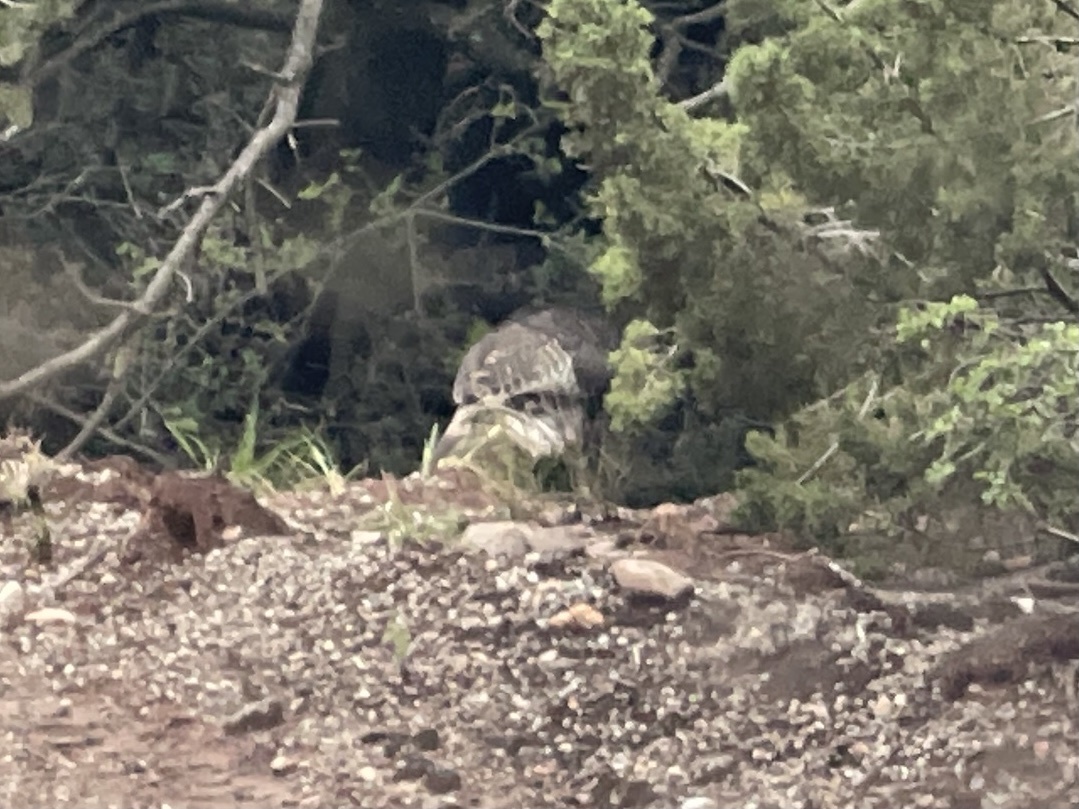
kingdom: Animalia
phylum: Chordata
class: Aves
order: Galliformes
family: Phasianidae
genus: Meleagris
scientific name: Meleagris gallopavo
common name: Wild turkey
